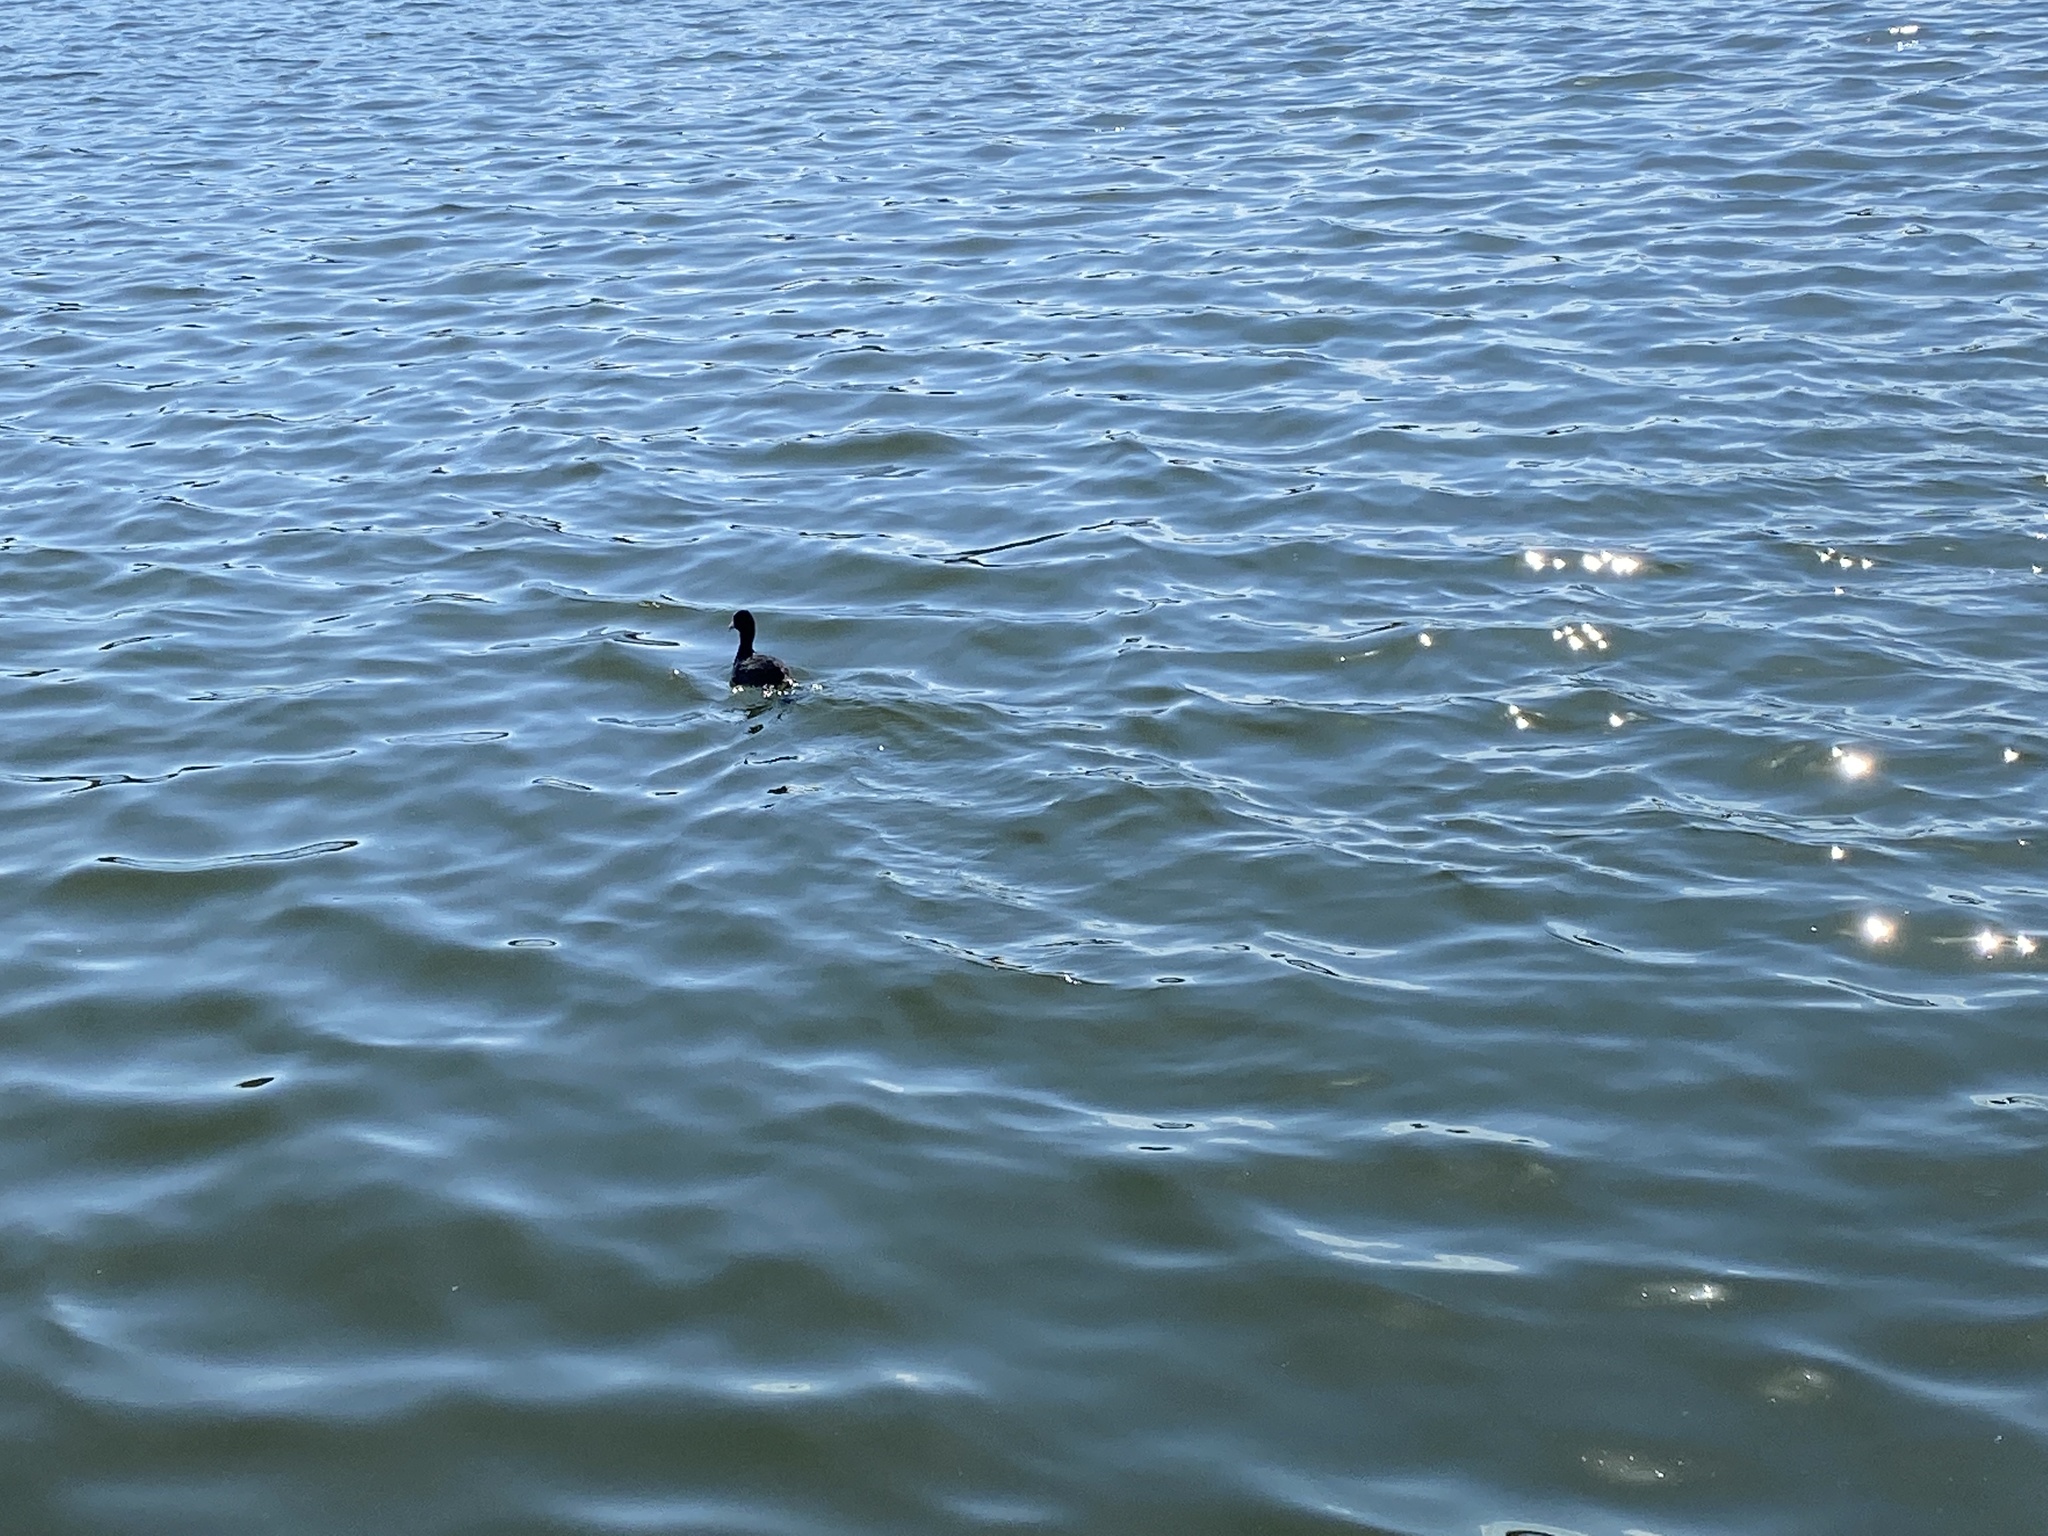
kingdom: Animalia
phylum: Chordata
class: Aves
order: Gruiformes
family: Rallidae
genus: Fulica
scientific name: Fulica atra
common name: Eurasian coot
